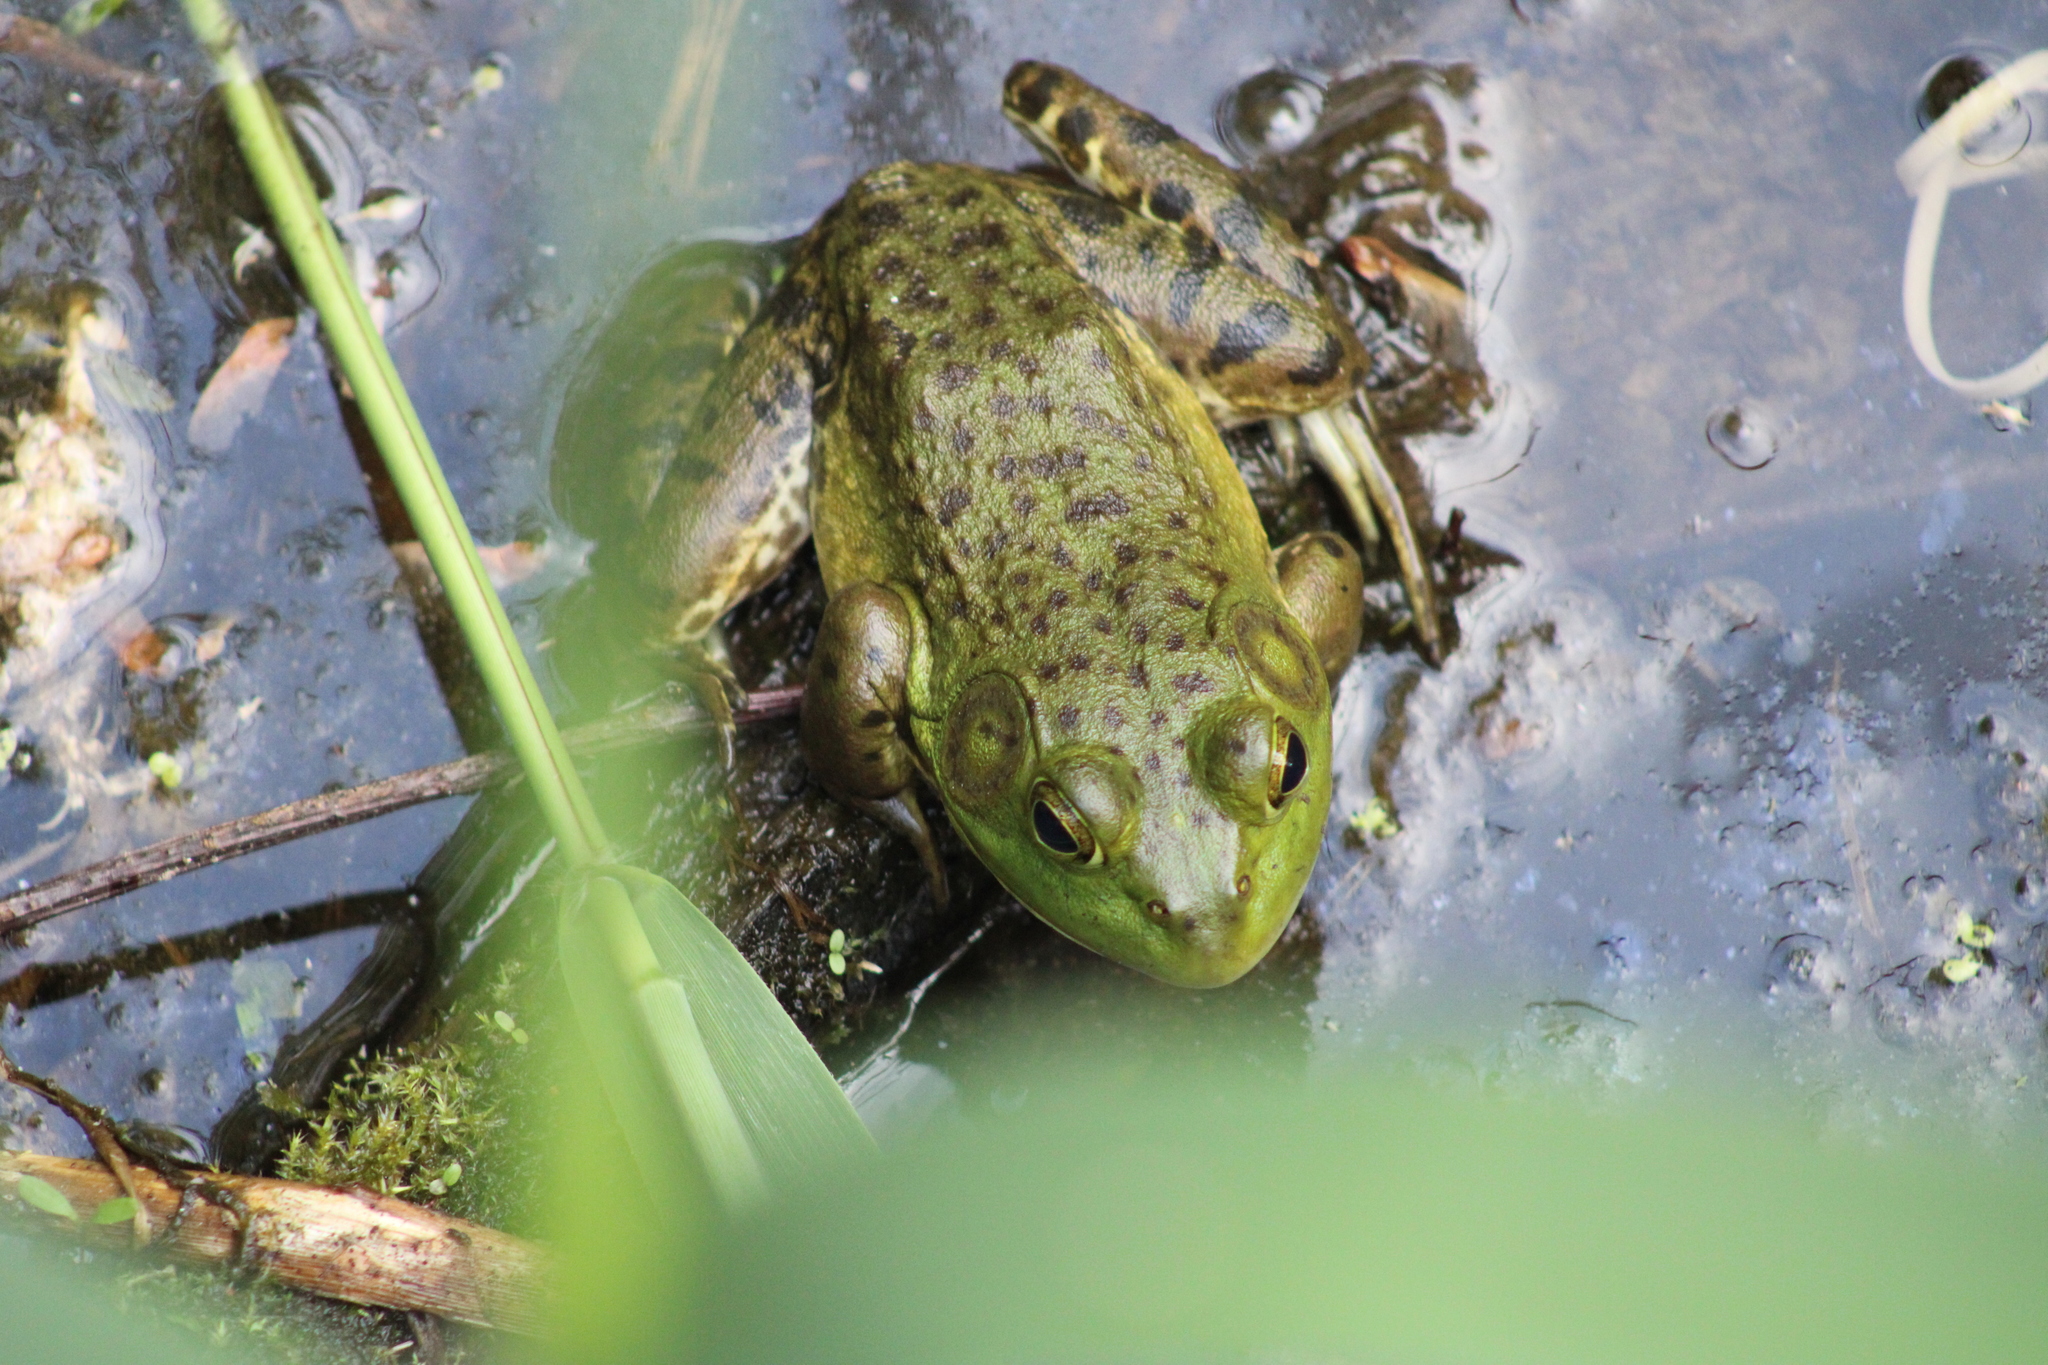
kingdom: Animalia
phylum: Chordata
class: Amphibia
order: Anura
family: Ranidae
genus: Lithobates
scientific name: Lithobates catesbeianus
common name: American bullfrog
